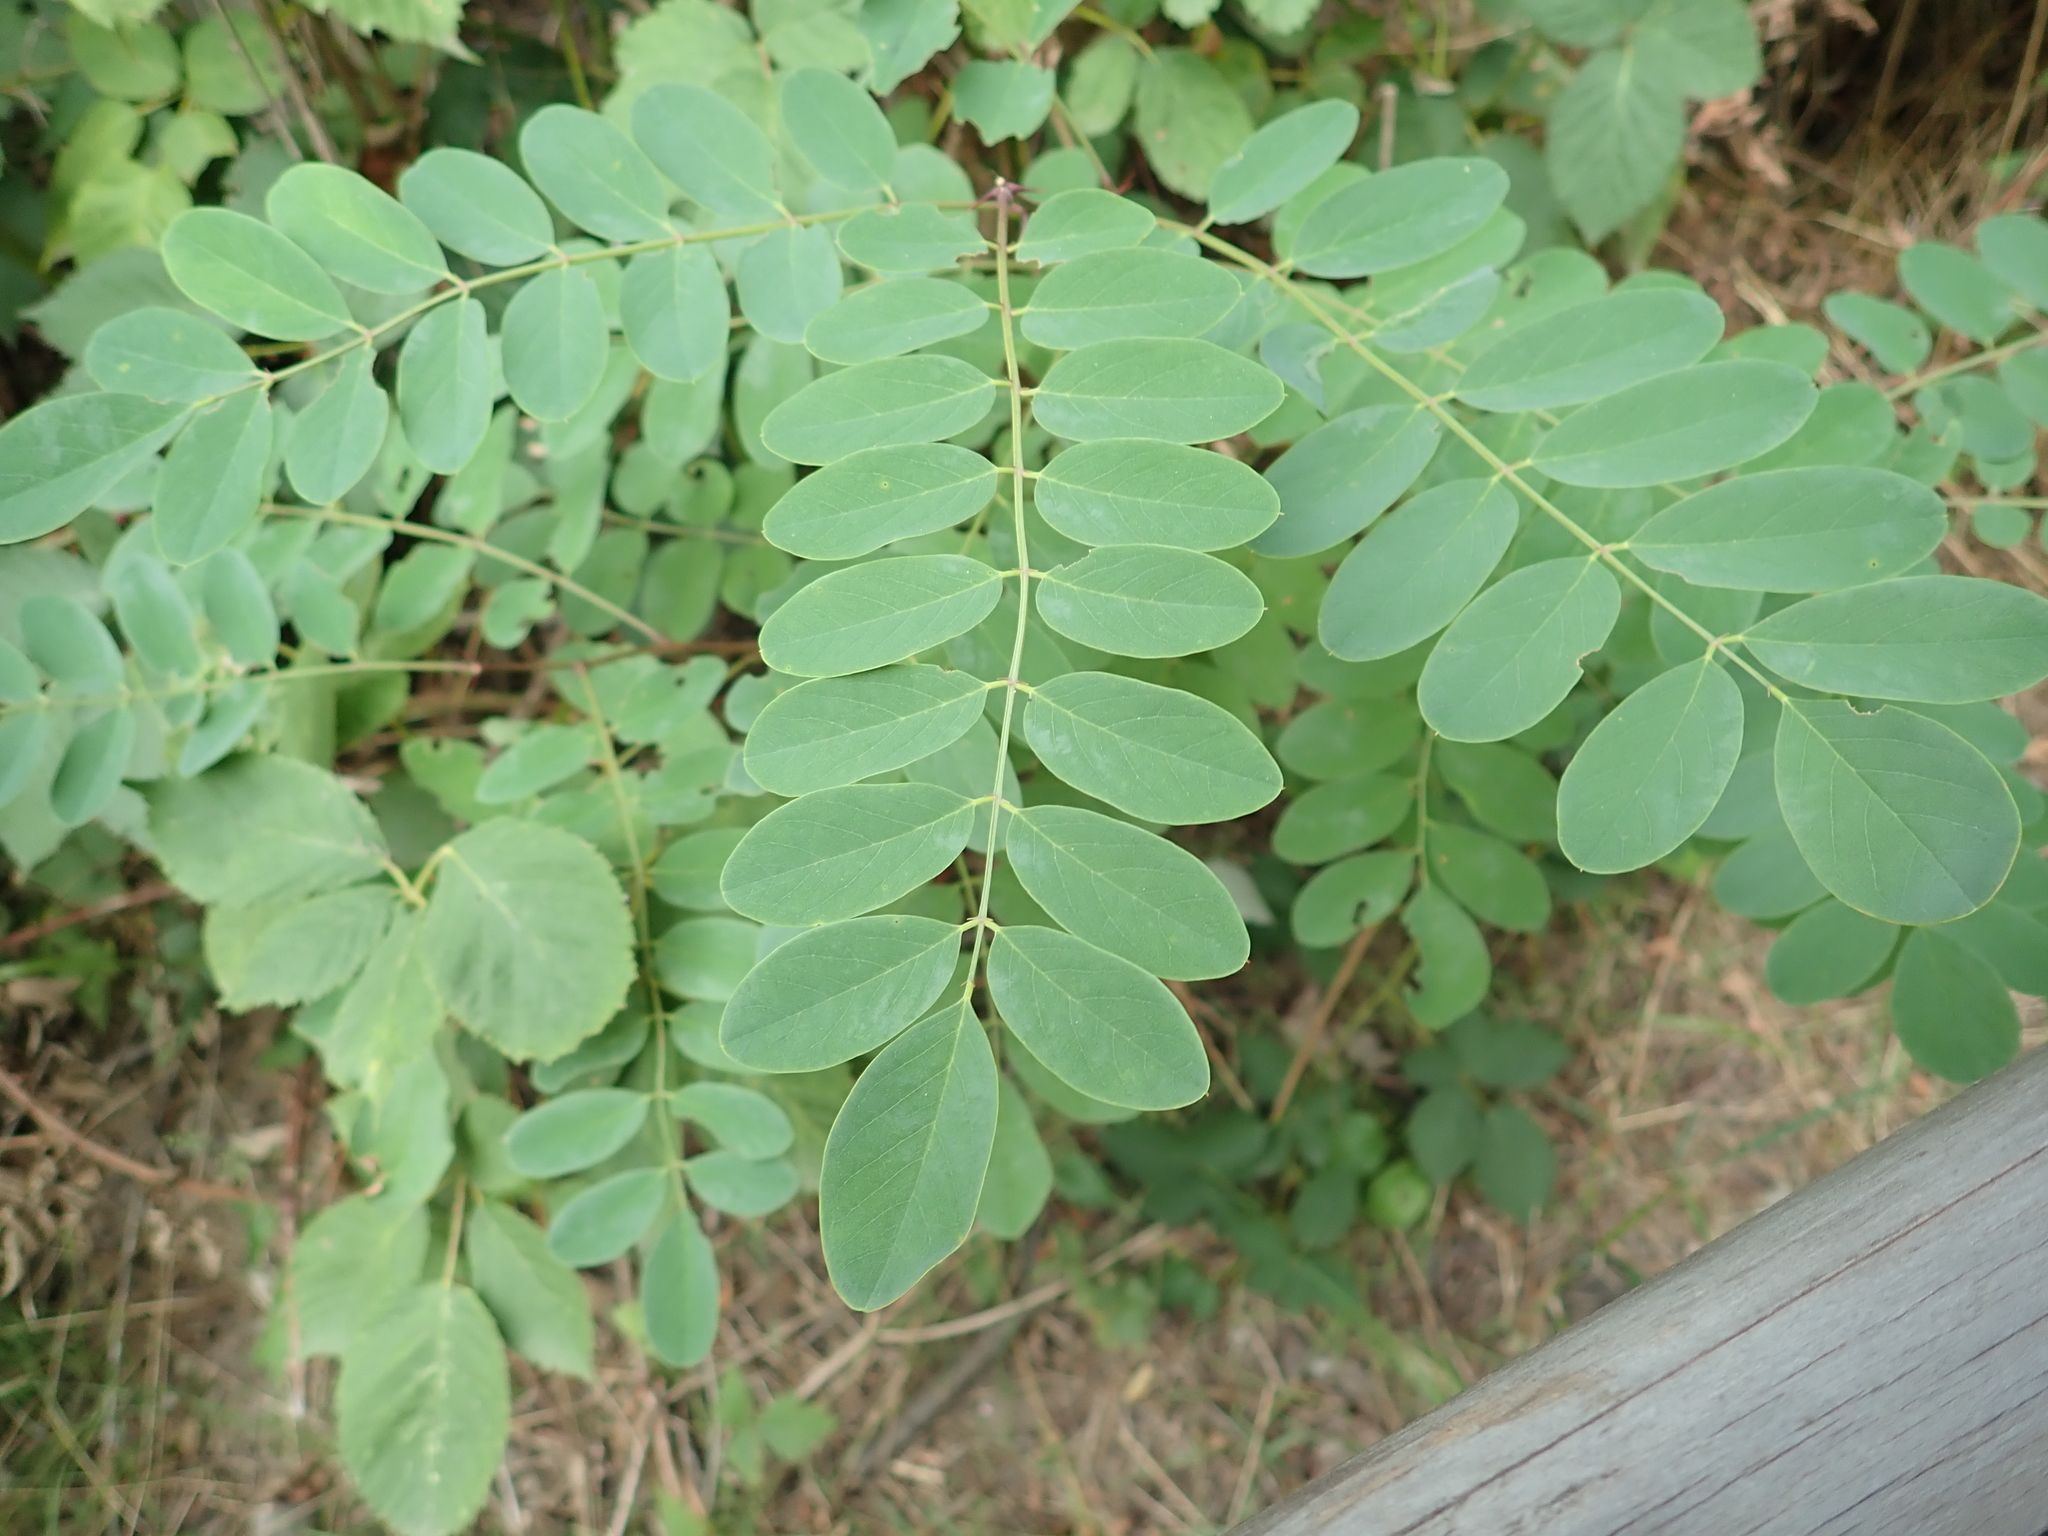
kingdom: Plantae
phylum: Tracheophyta
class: Magnoliopsida
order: Fabales
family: Fabaceae
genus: Robinia
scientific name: Robinia pseudoacacia
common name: Black locust
